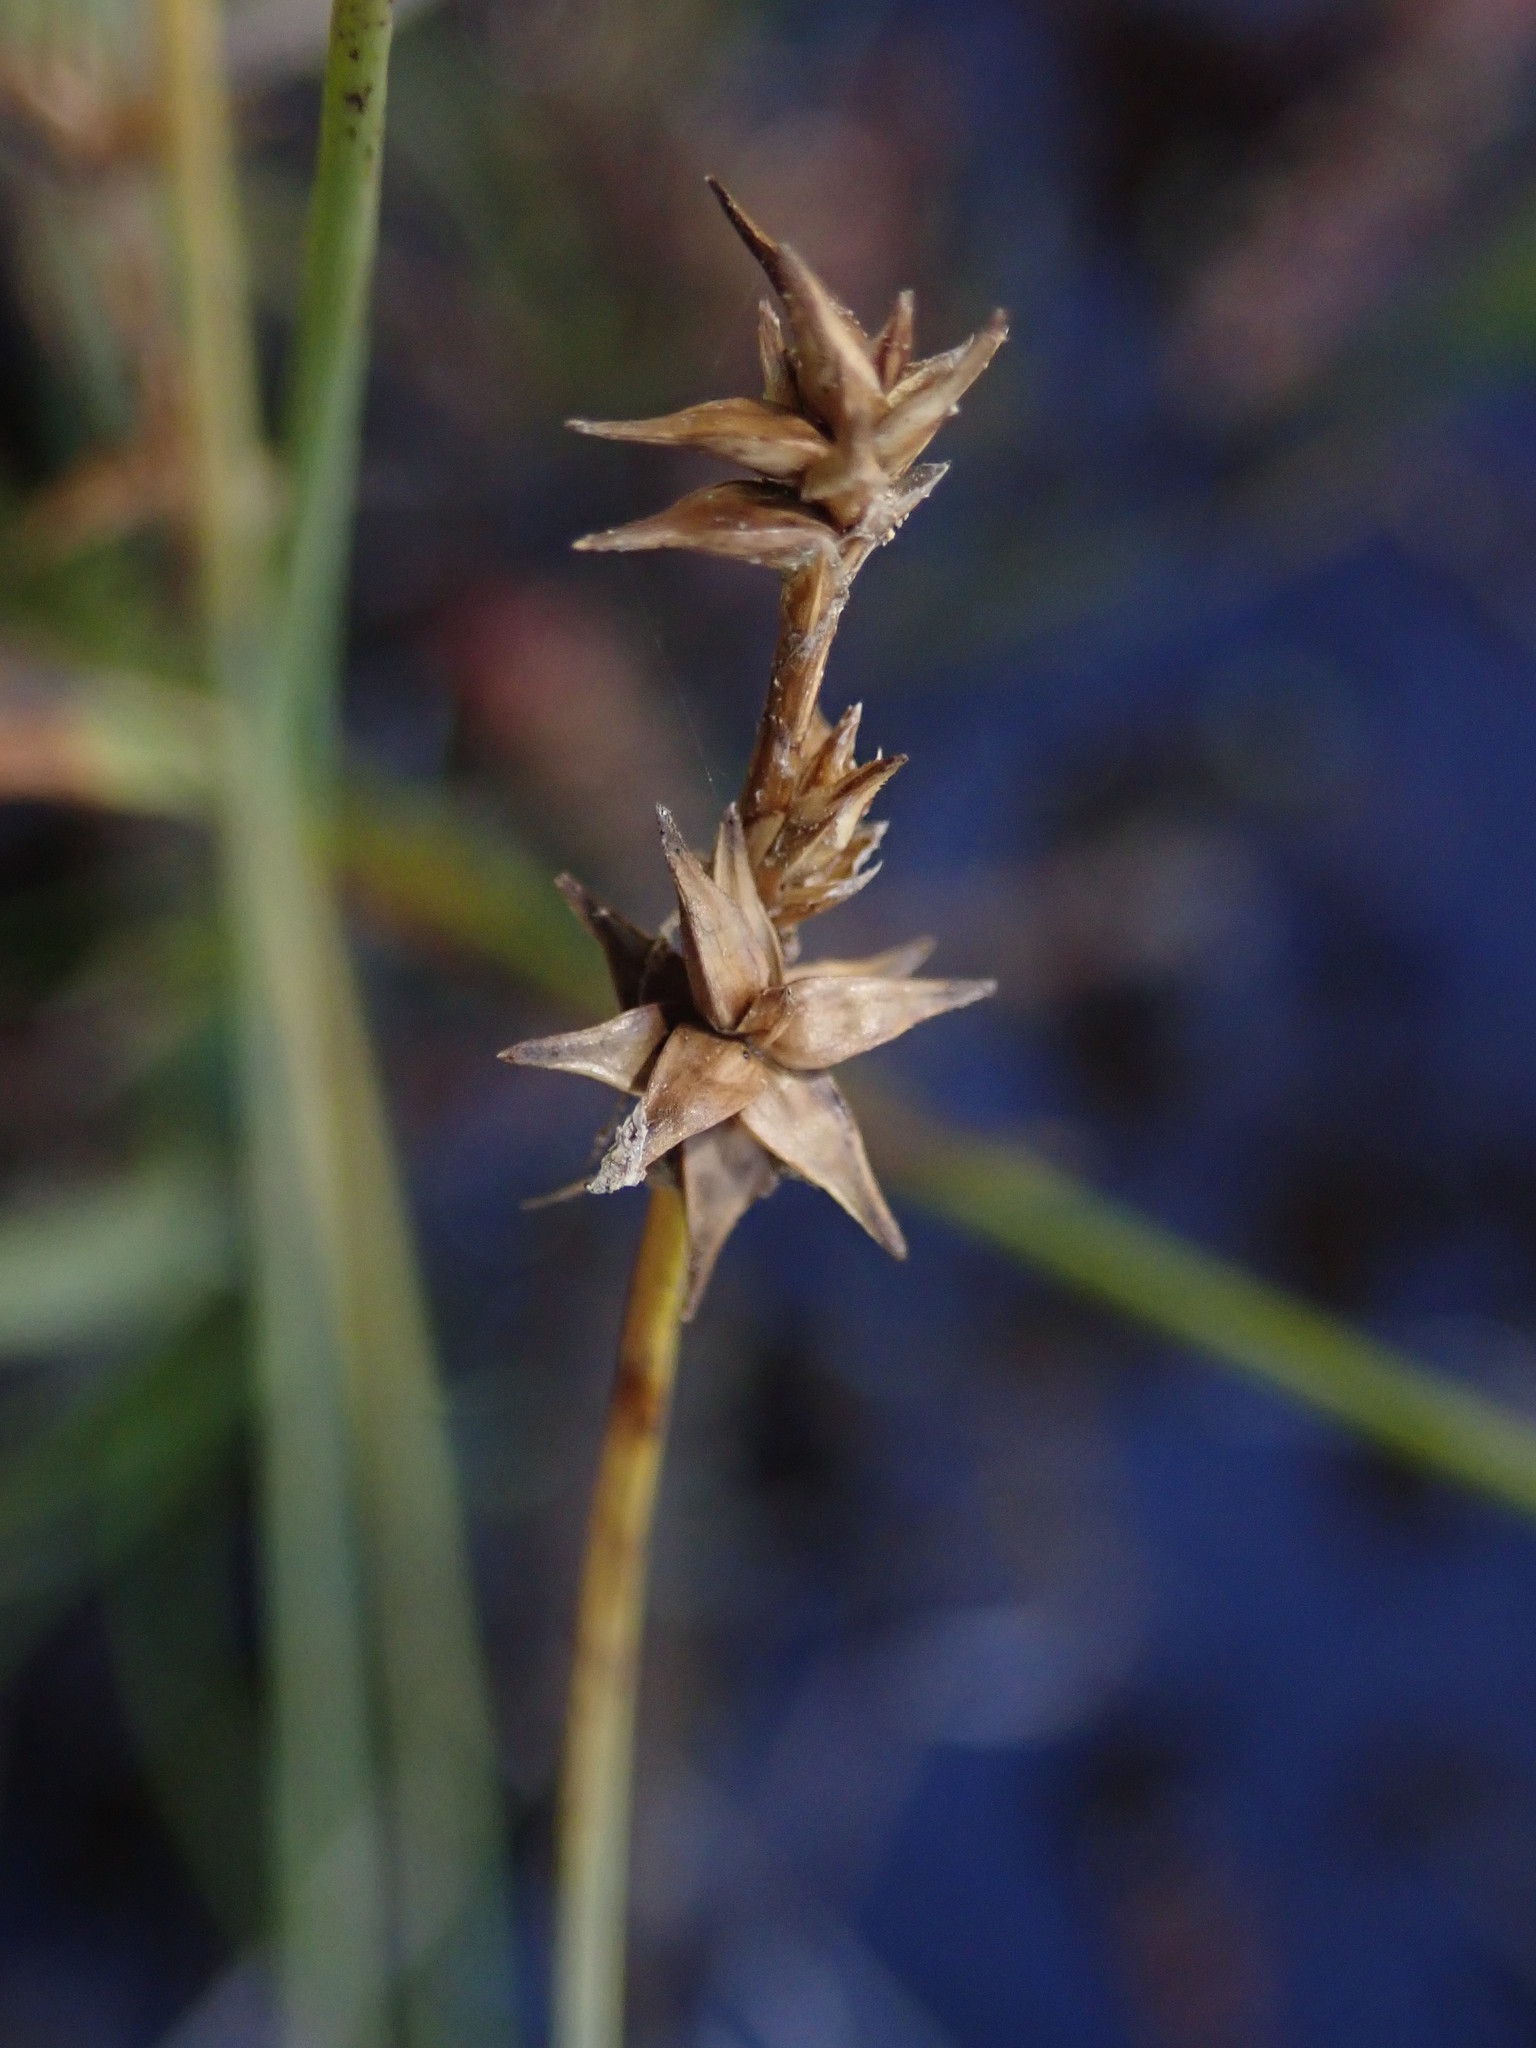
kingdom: Plantae
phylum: Tracheophyta
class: Liliopsida
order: Poales
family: Cyperaceae
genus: Carex
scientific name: Carex echinata
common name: Star sedge
